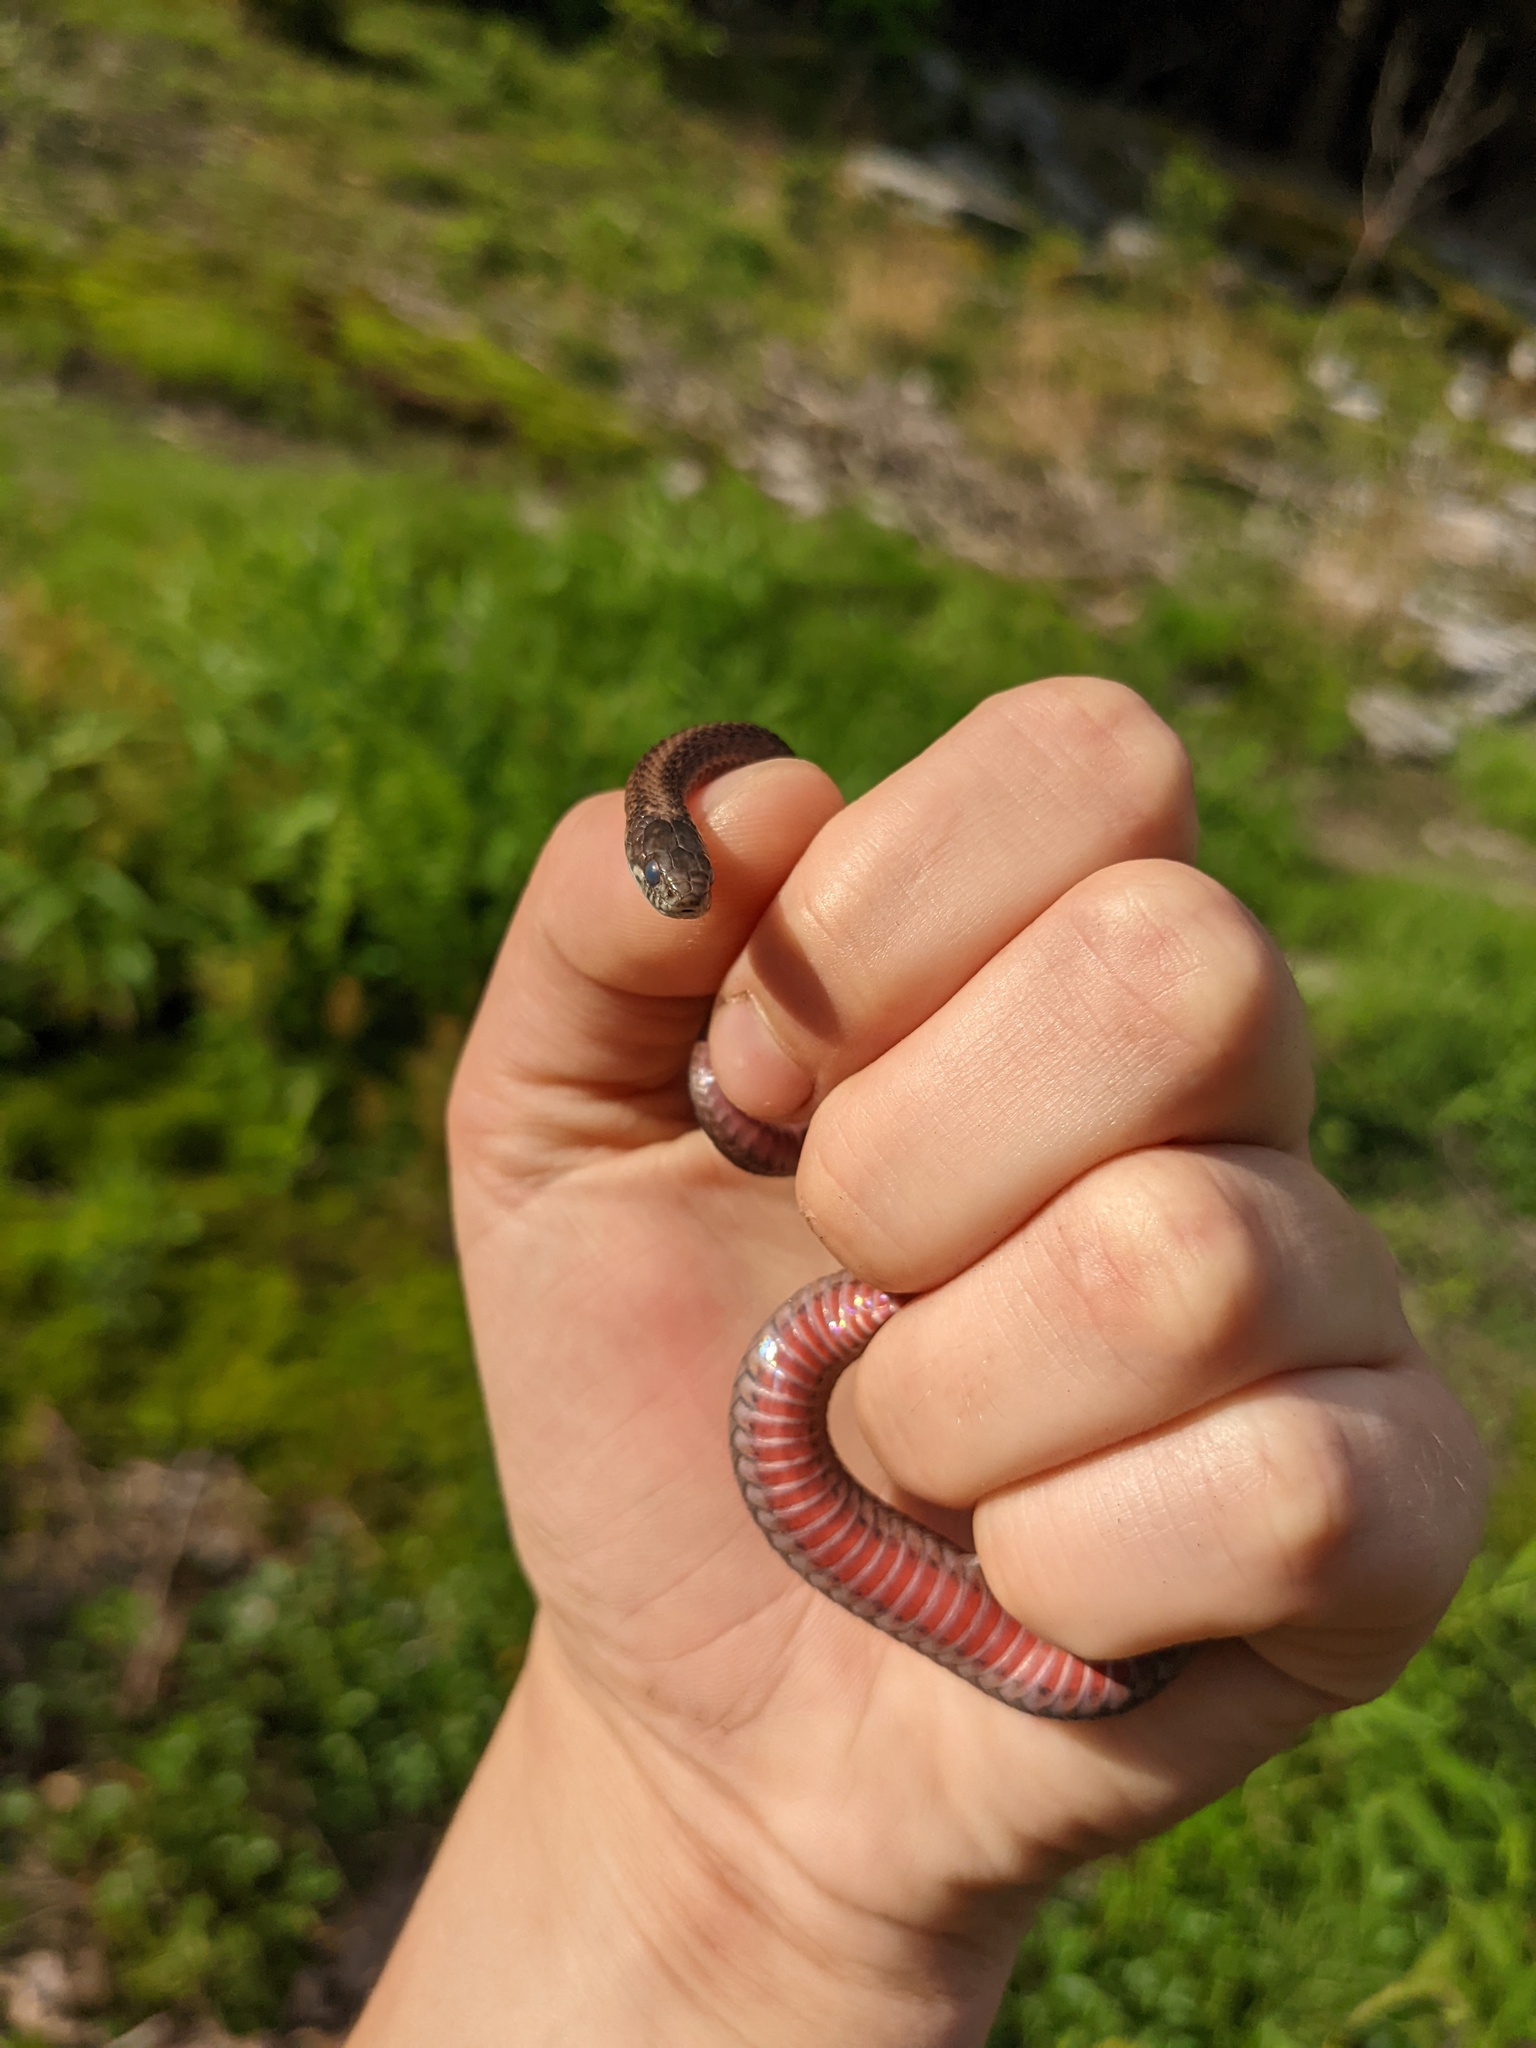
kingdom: Animalia
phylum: Chordata
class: Squamata
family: Colubridae
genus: Storeria
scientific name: Storeria occipitomaculata
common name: Redbelly snake
